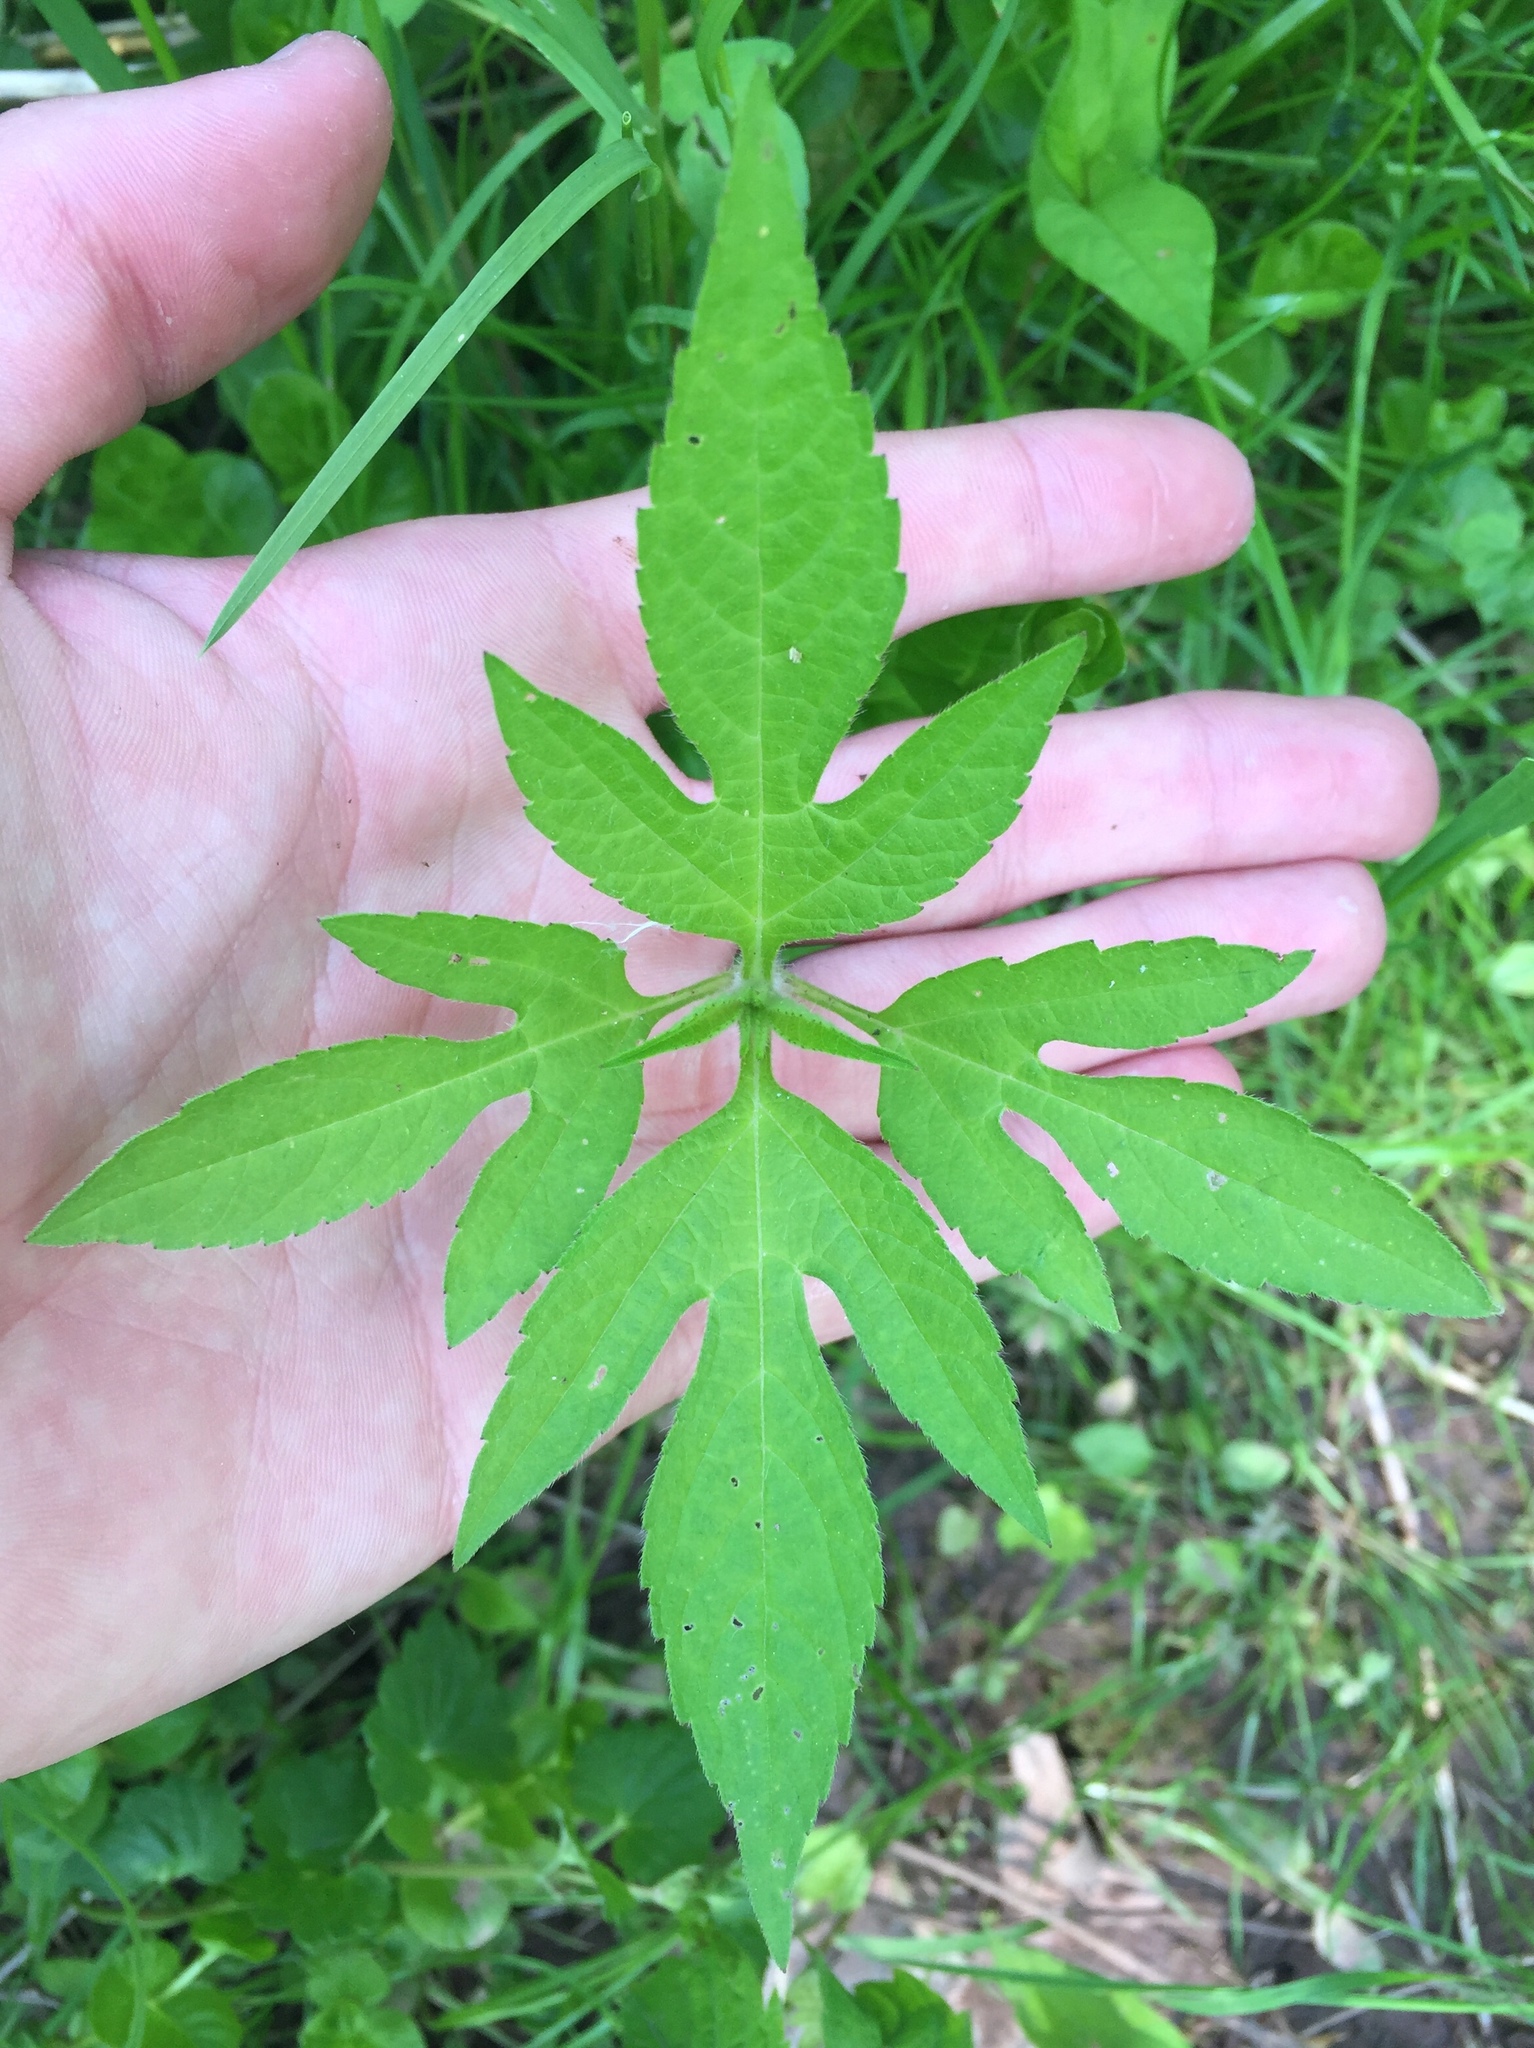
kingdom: Plantae
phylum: Tracheophyta
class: Magnoliopsida
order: Asterales
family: Asteraceae
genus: Ambrosia
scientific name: Ambrosia trifida
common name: Giant ragweed
